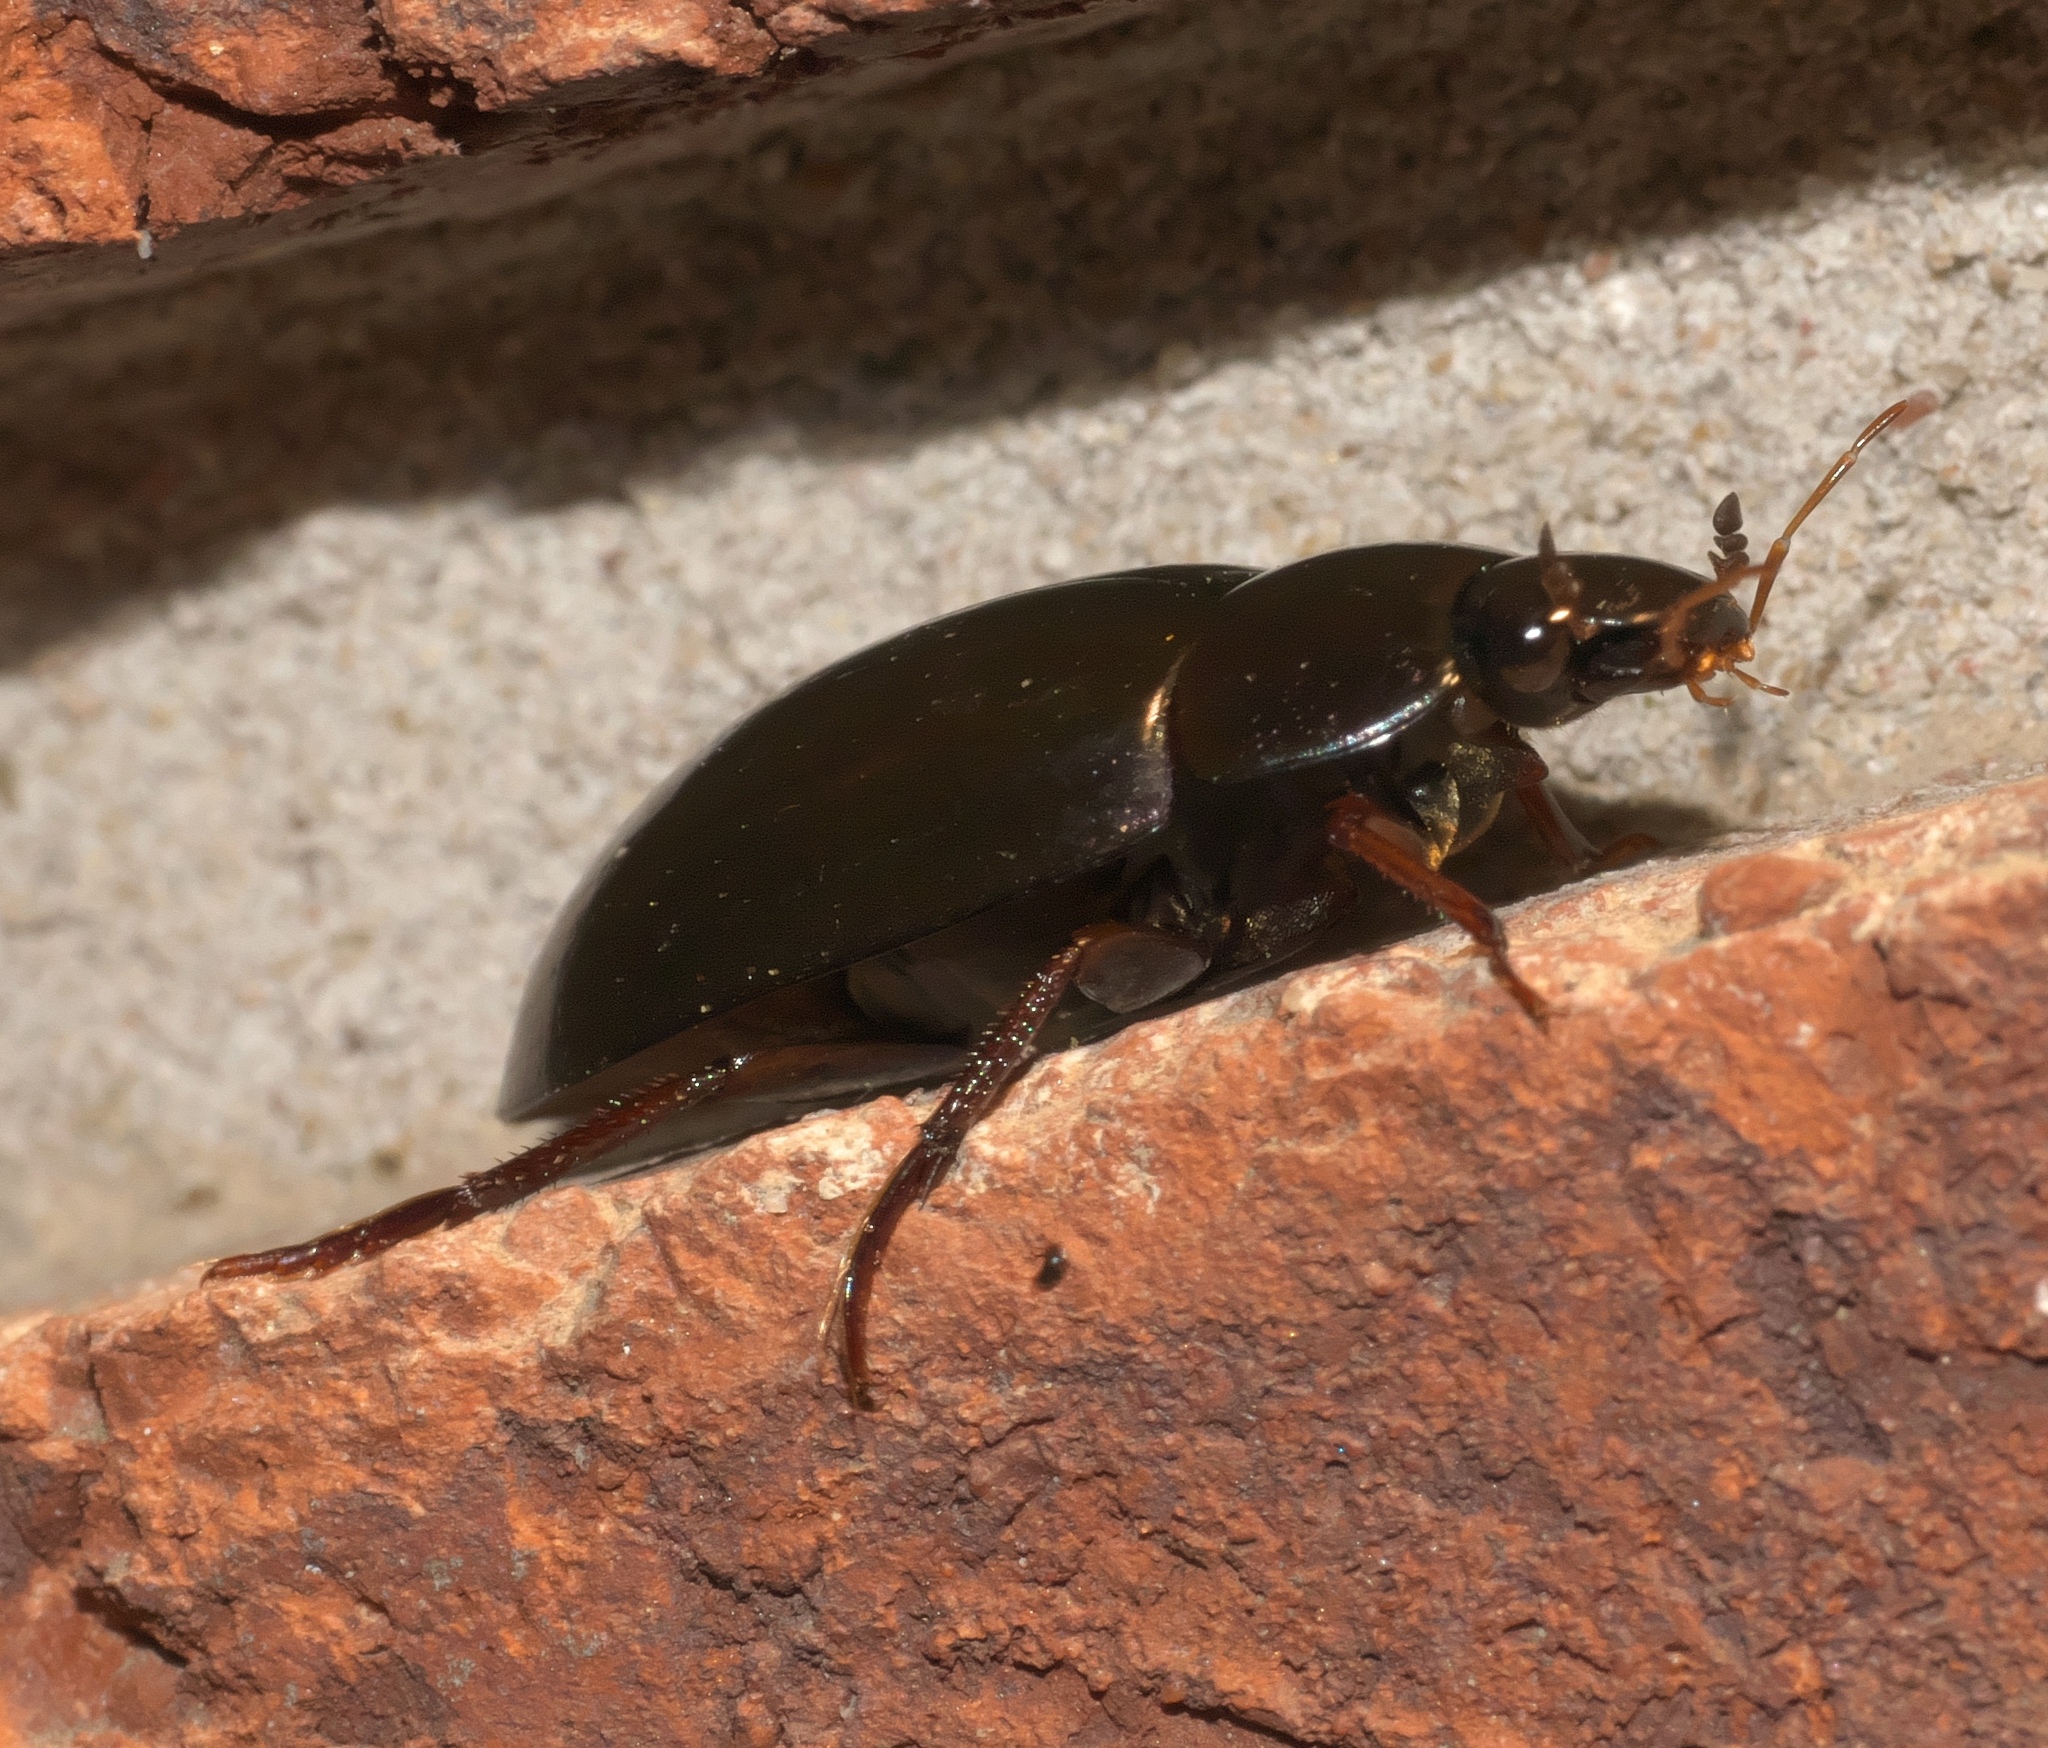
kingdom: Animalia
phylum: Arthropoda
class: Insecta
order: Coleoptera
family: Hydrophilidae
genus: Hydrochara
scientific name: Hydrochara
